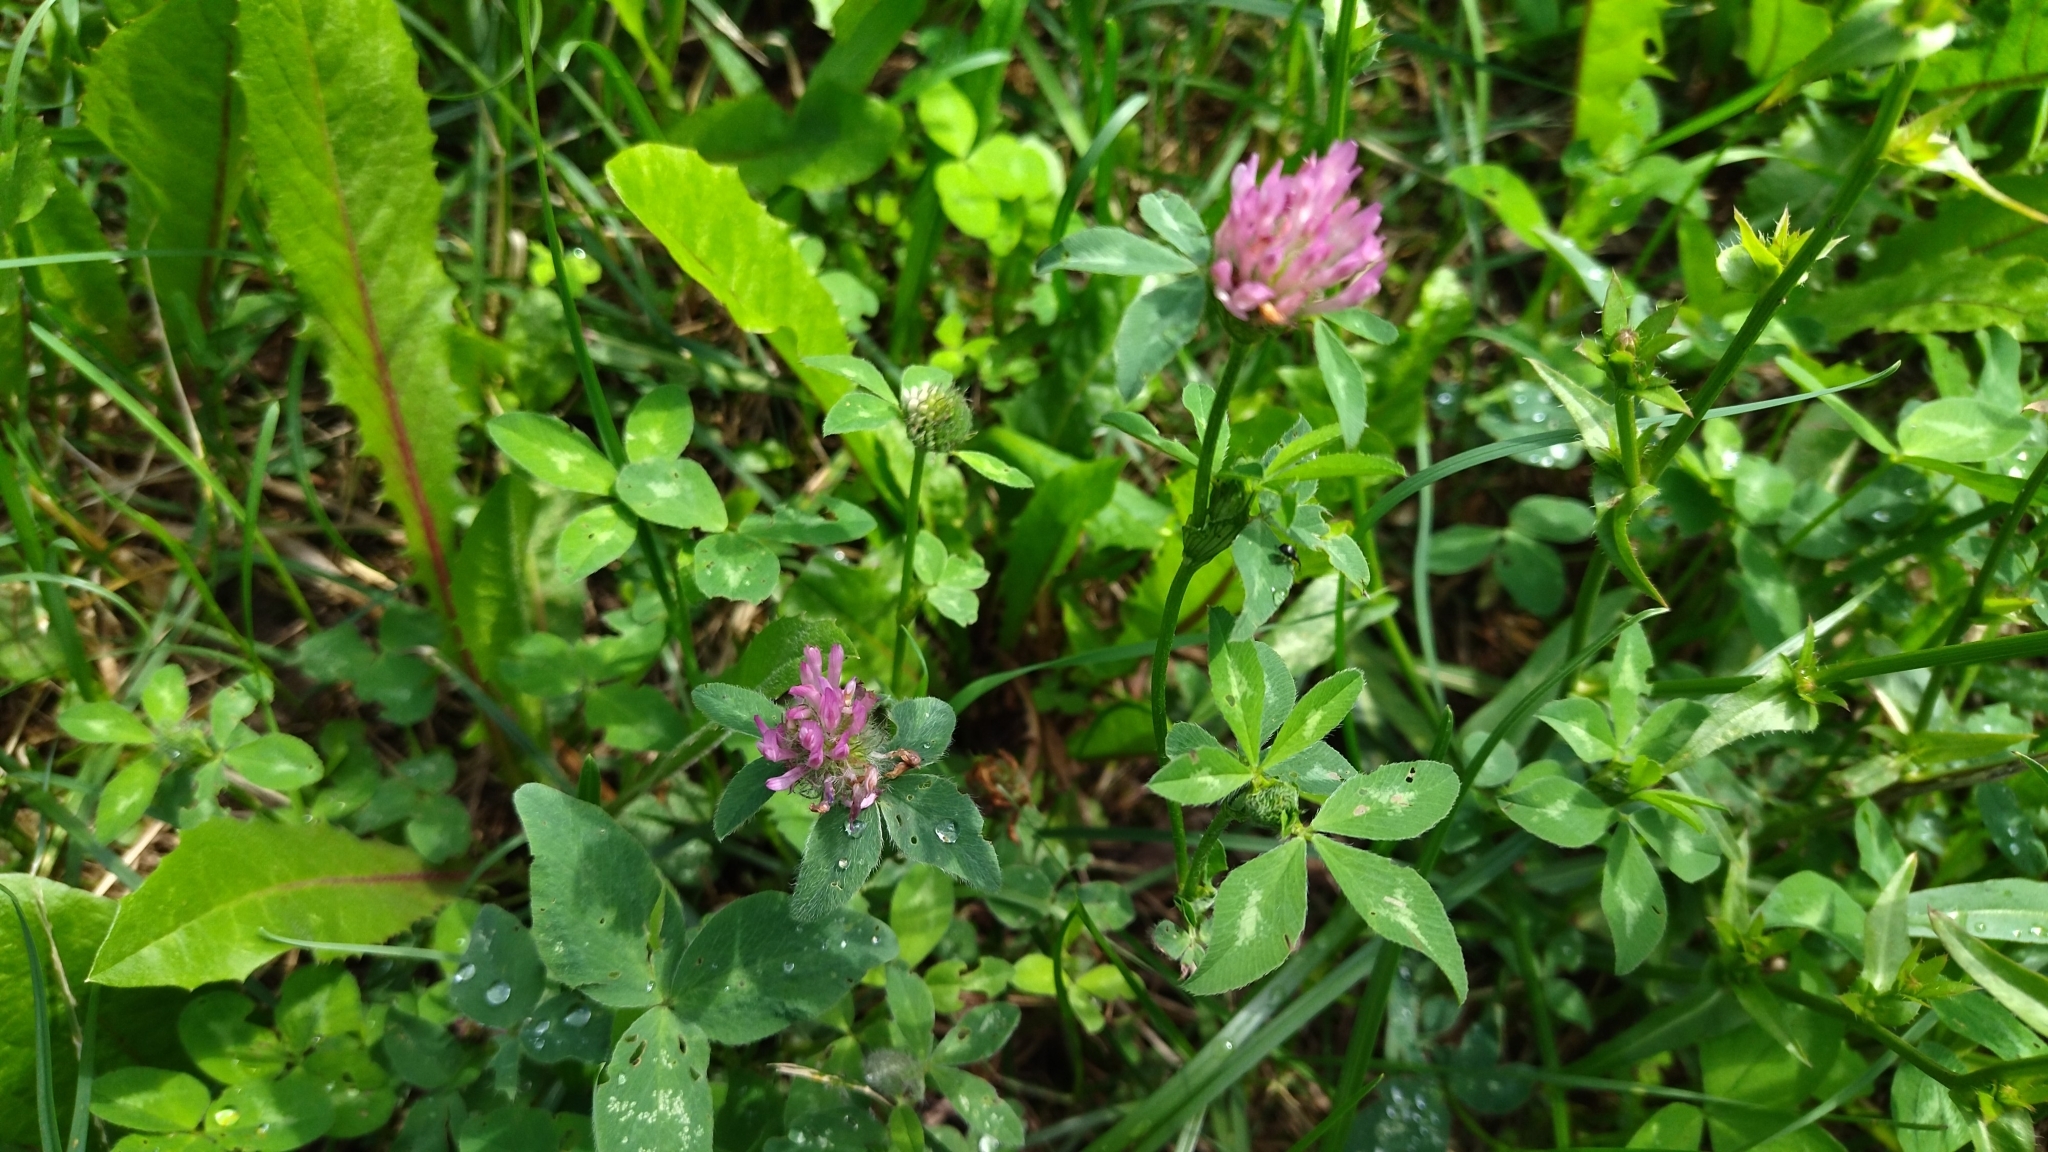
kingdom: Plantae
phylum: Tracheophyta
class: Magnoliopsida
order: Fabales
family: Fabaceae
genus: Trifolium
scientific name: Trifolium pratense
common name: Red clover
